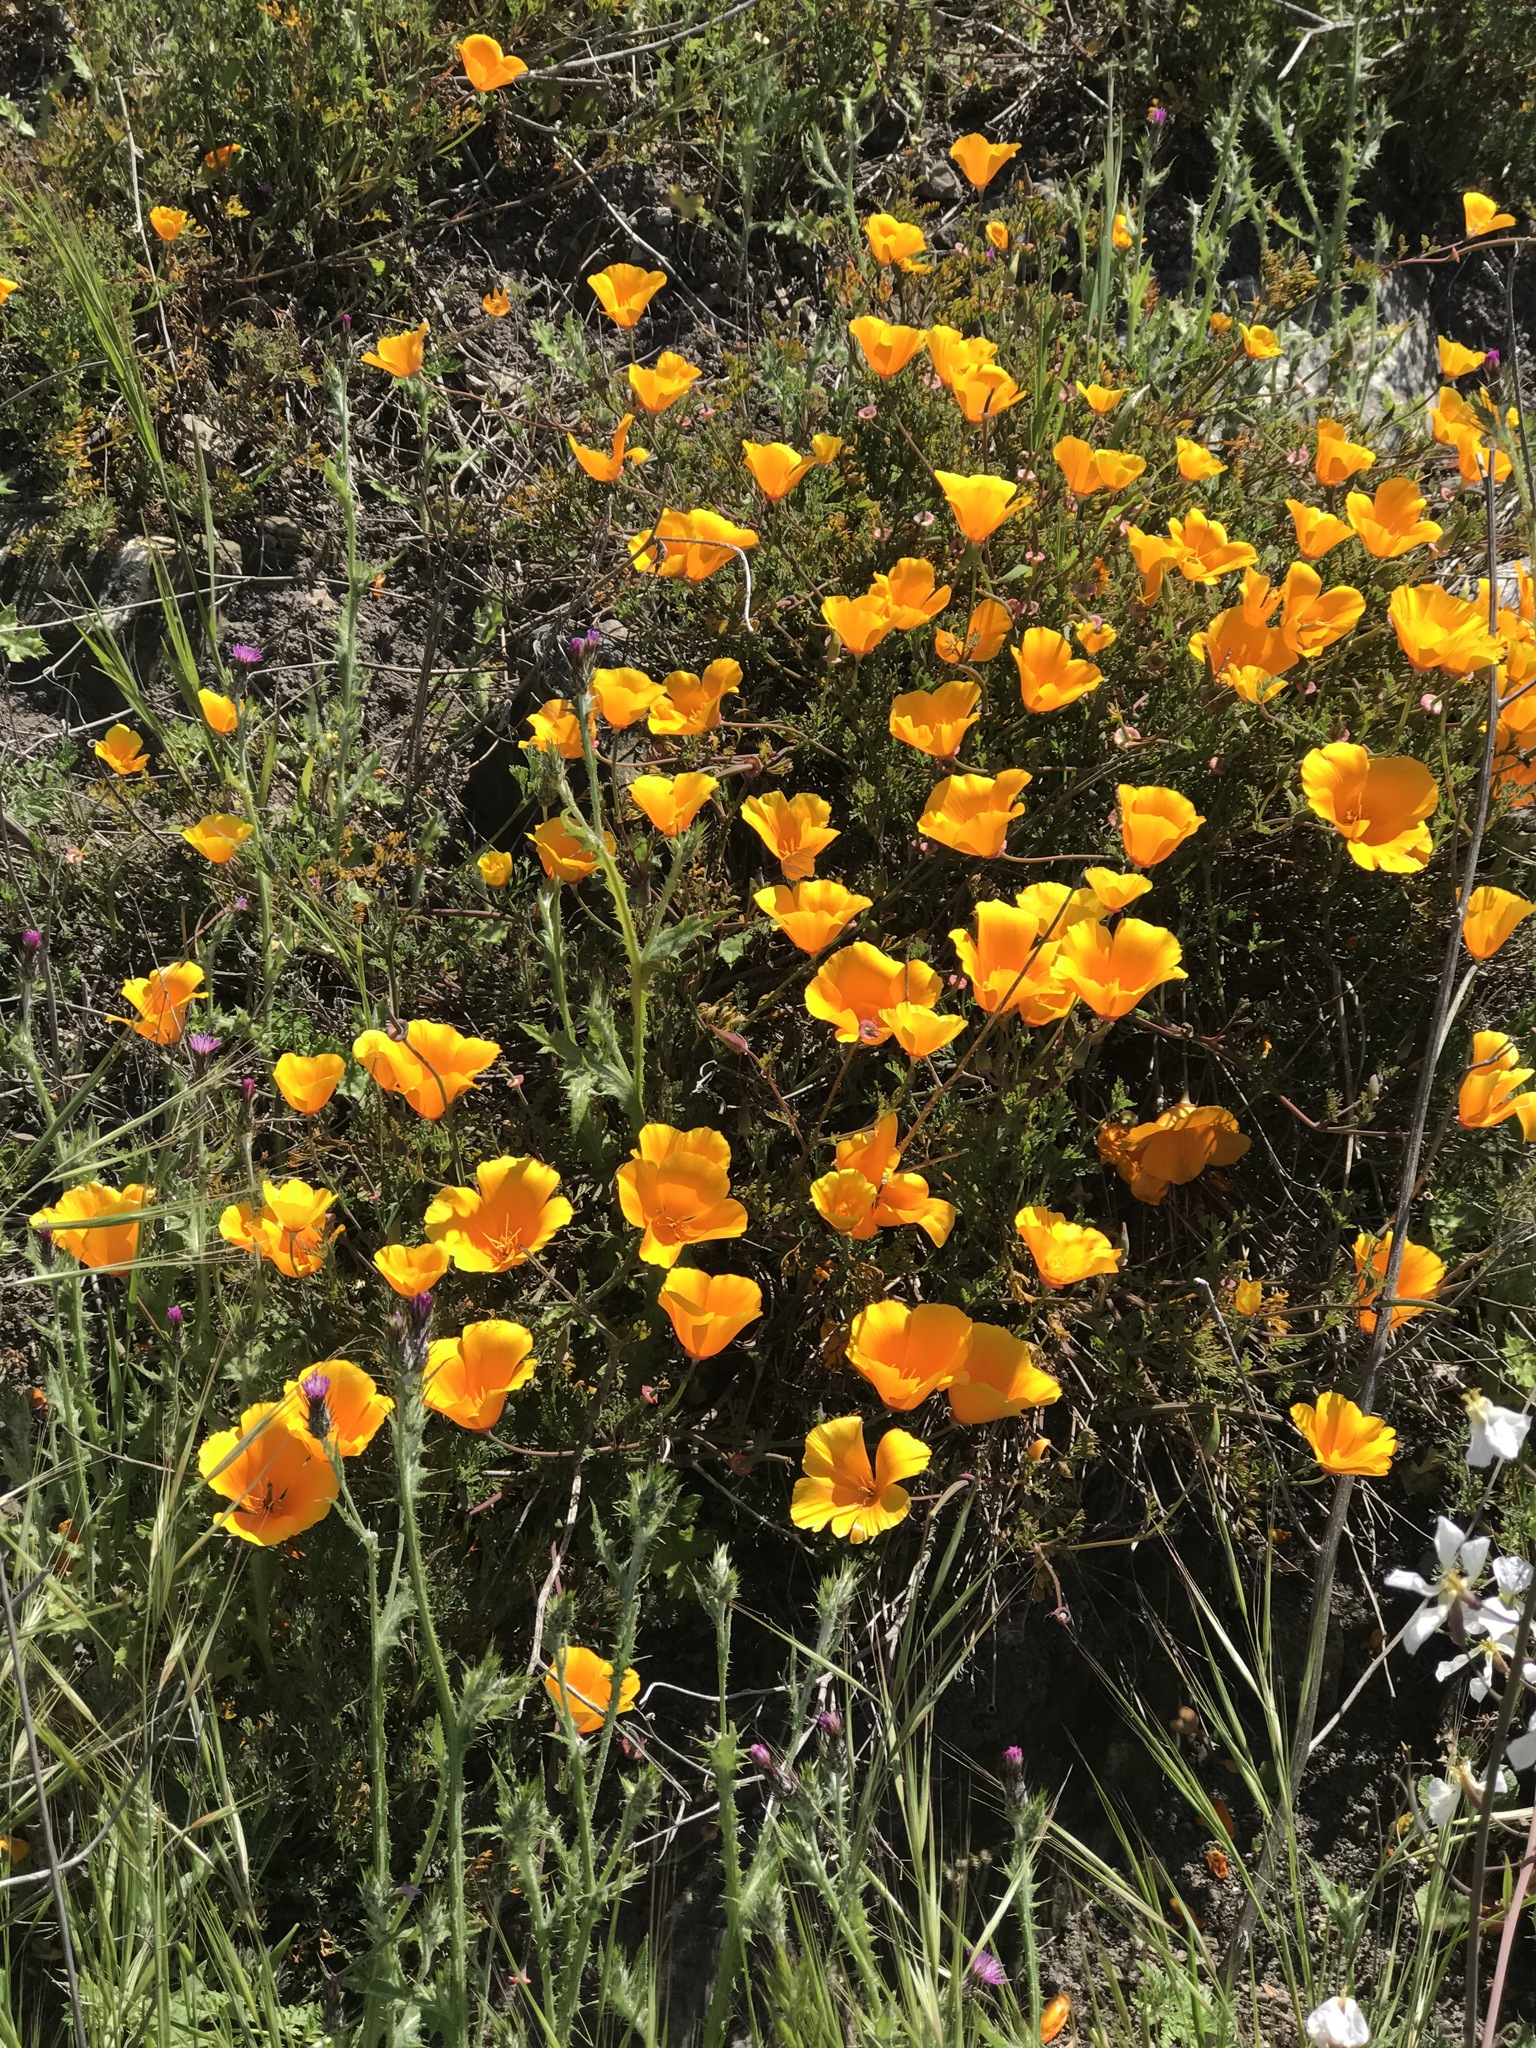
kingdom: Plantae
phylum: Tracheophyta
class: Magnoliopsida
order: Ranunculales
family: Papaveraceae
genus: Eschscholzia
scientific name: Eschscholzia californica
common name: California poppy
